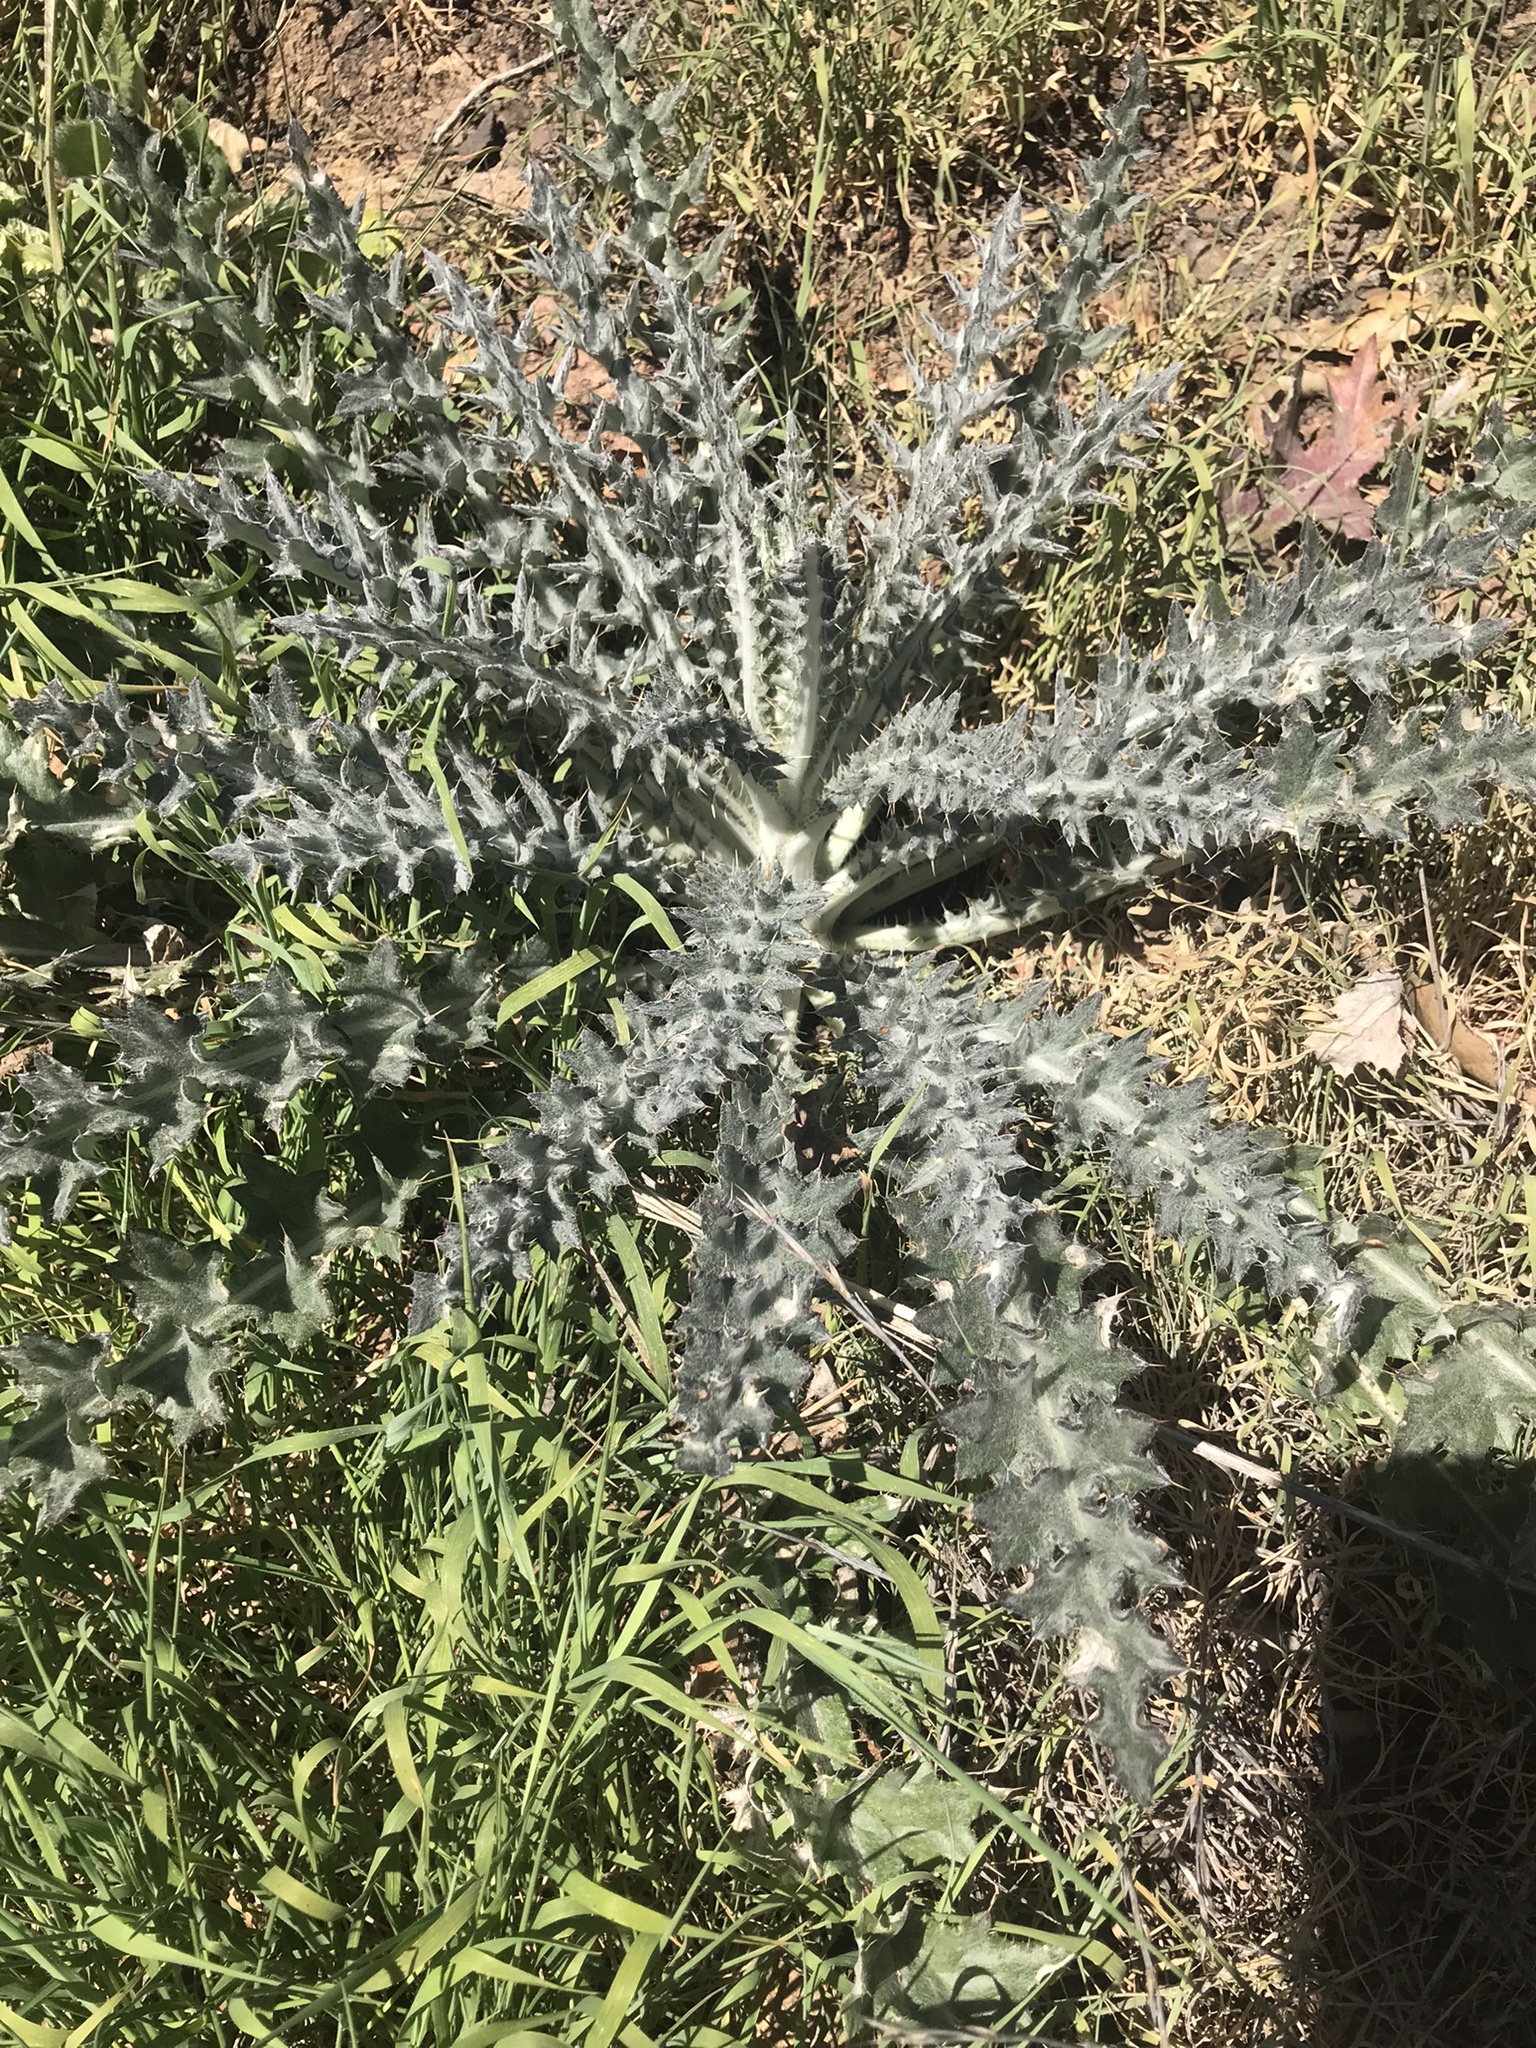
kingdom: Plantae
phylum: Tracheophyta
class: Magnoliopsida
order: Asterales
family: Asteraceae
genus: Cirsium
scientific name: Cirsium occidentale
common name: Western thistle
